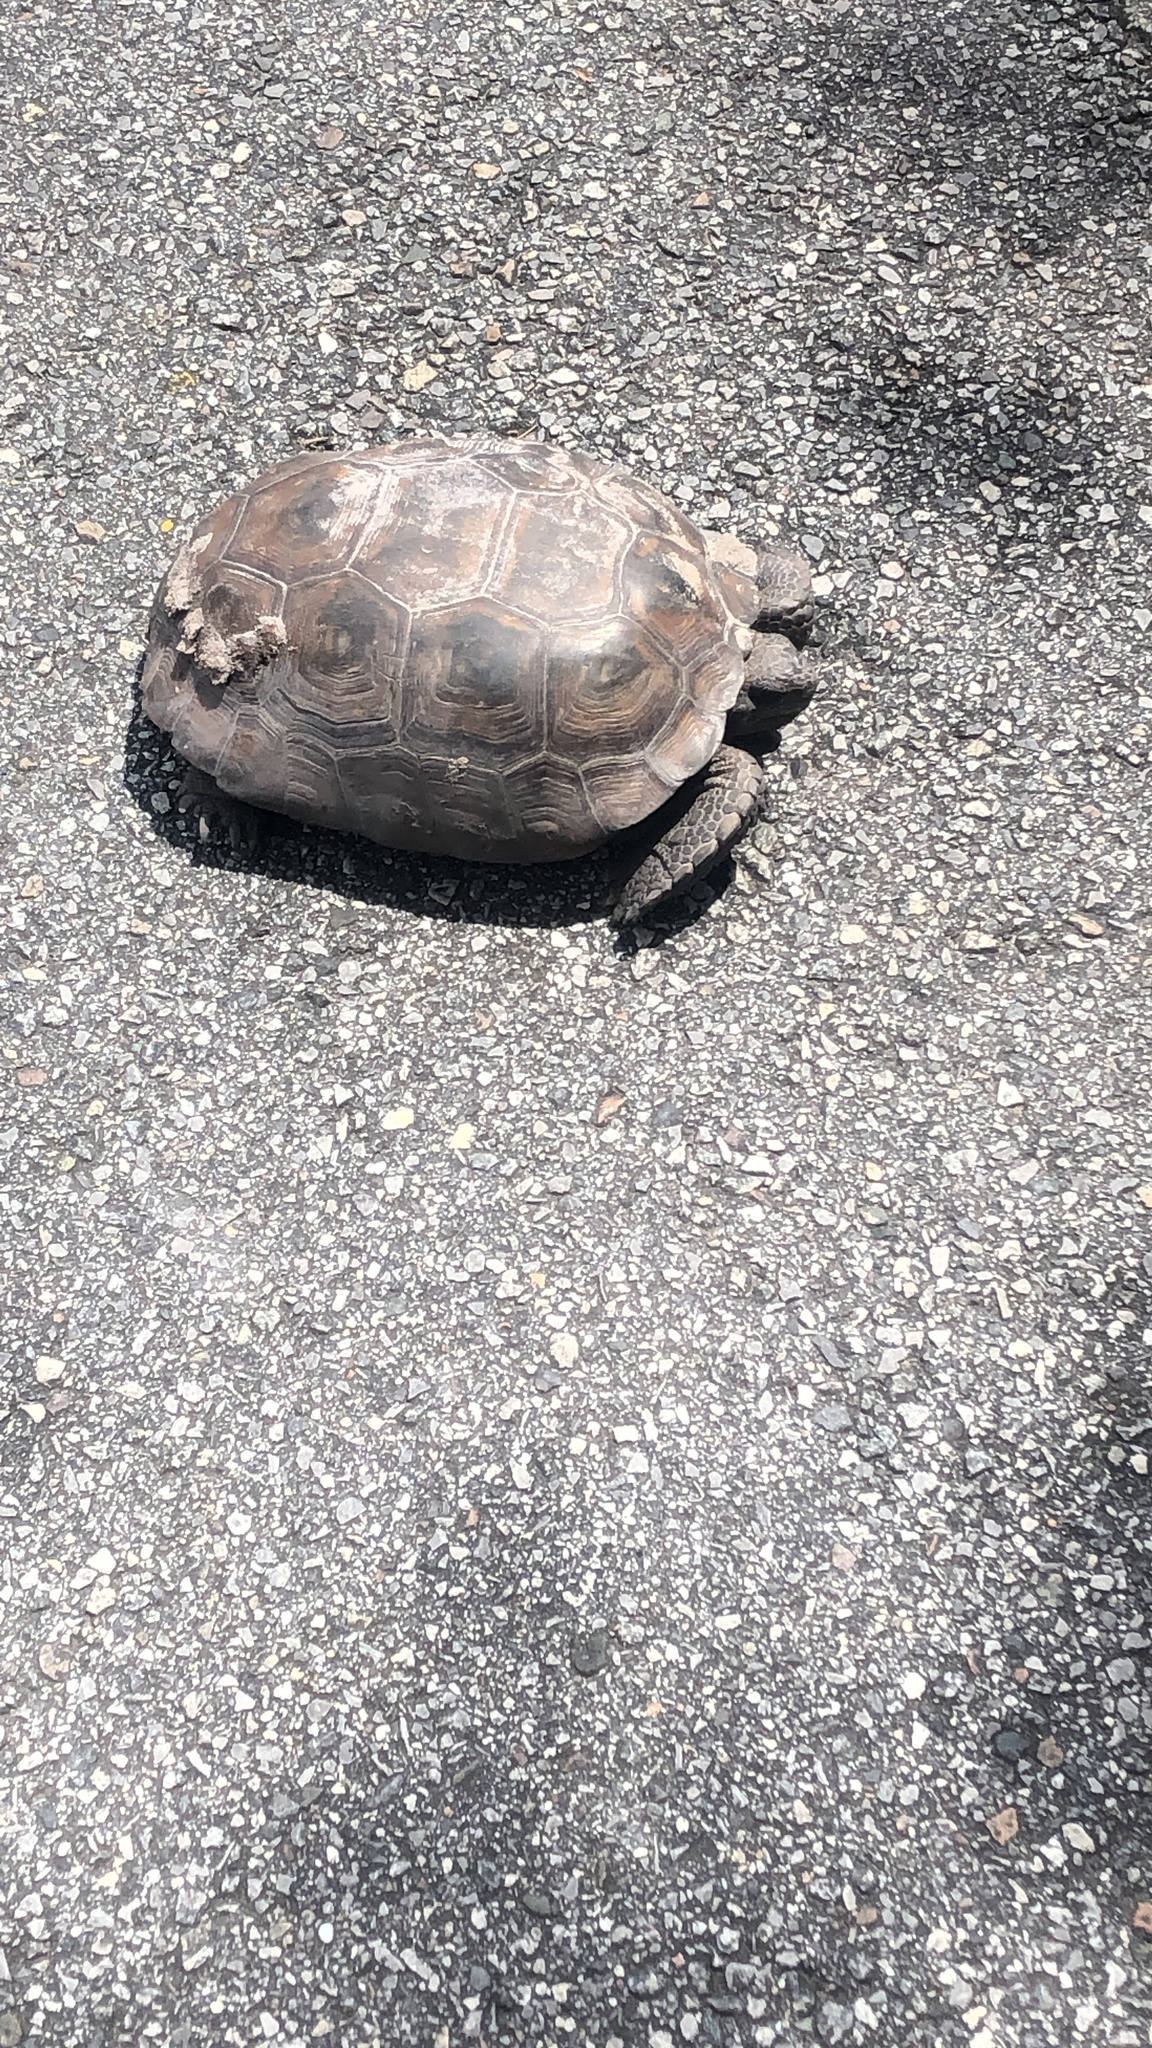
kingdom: Animalia
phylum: Chordata
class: Testudines
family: Testudinidae
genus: Gopherus
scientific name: Gopherus polyphemus
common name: Florida gopher tortoise
